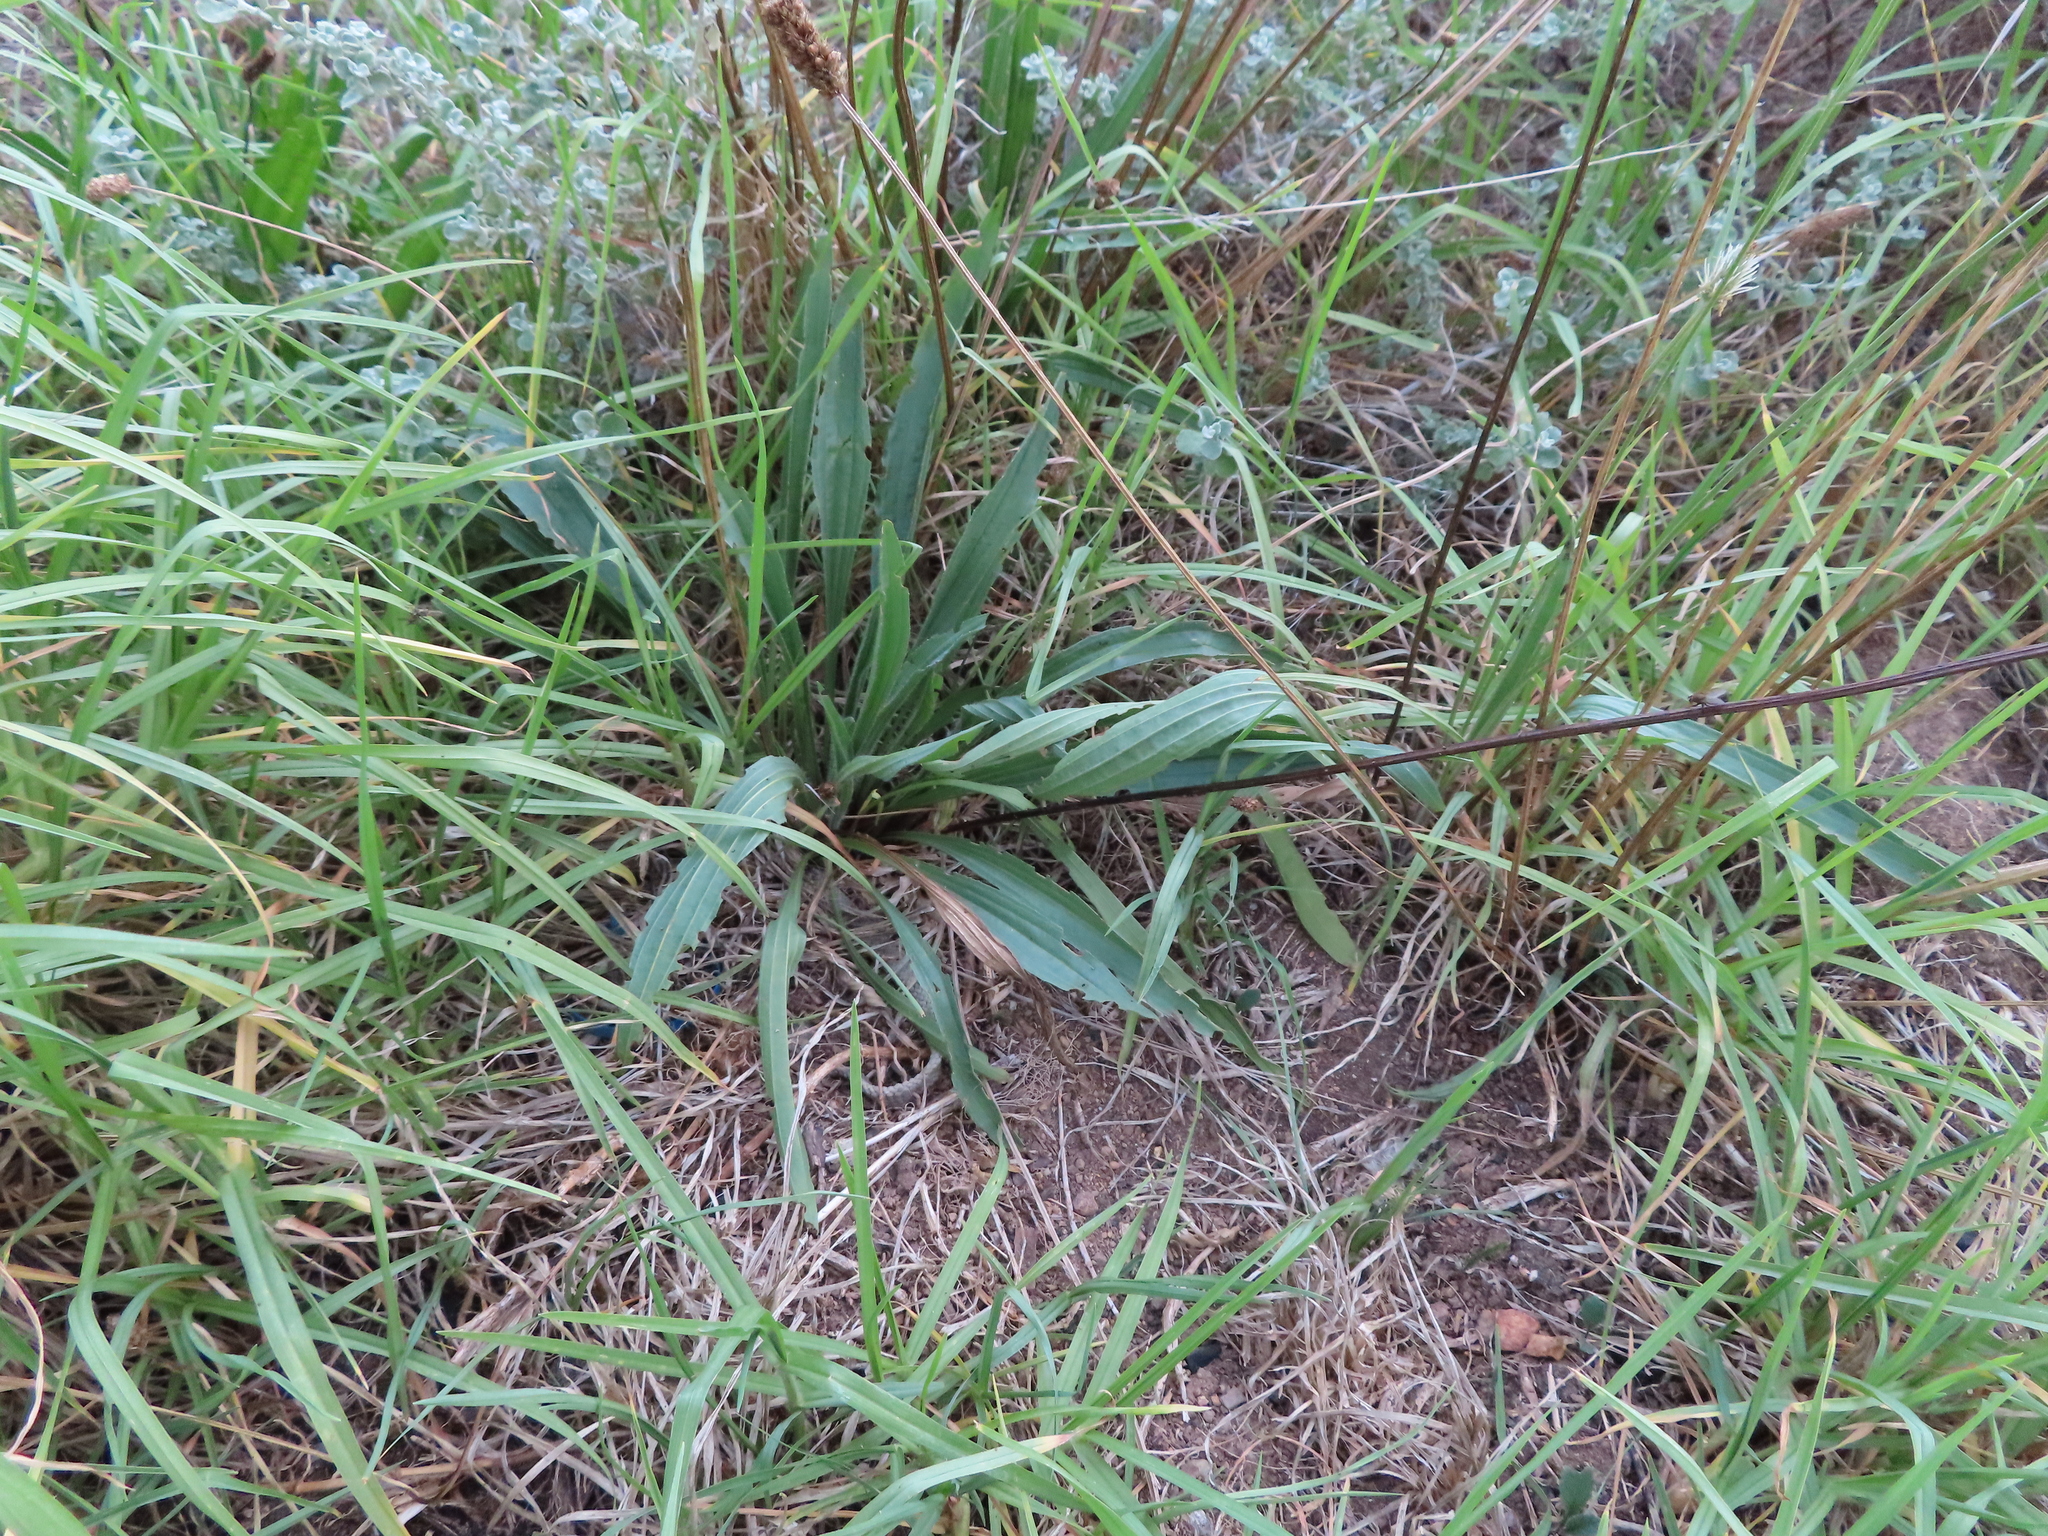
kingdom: Plantae
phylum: Tracheophyta
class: Magnoliopsida
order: Lamiales
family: Plantaginaceae
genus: Plantago
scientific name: Plantago lanceolata
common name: Ribwort plantain
